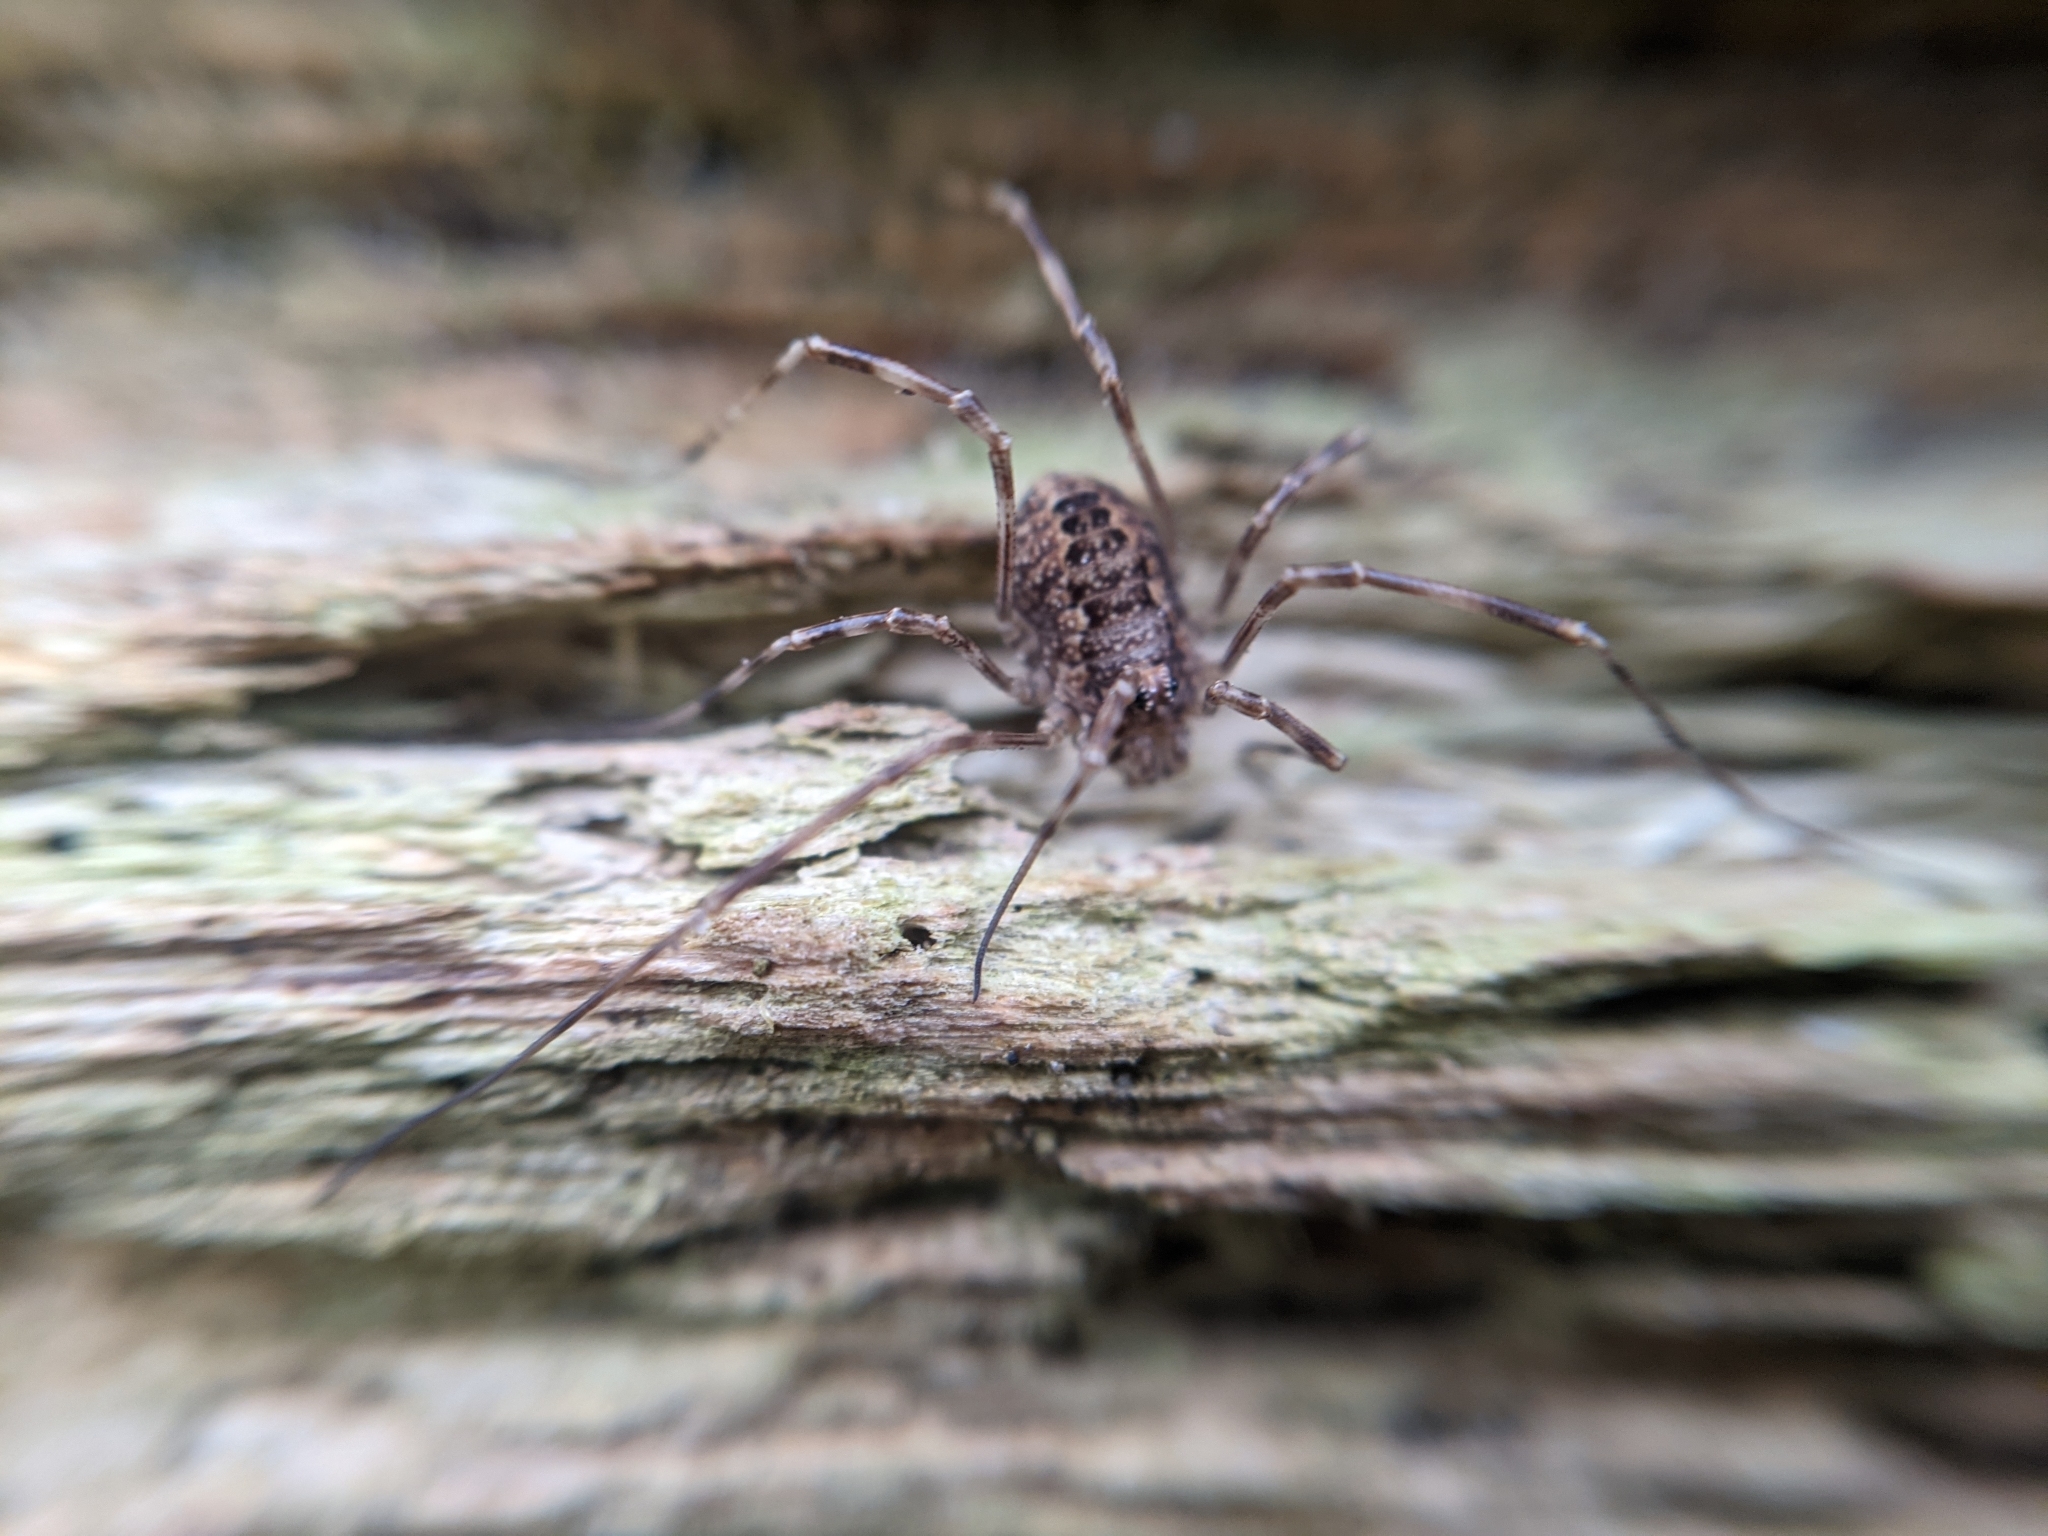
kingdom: Animalia
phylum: Arthropoda
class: Arachnida
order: Opiliones
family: Phalangiidae
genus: Rilaena
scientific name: Rilaena triangularis
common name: Spring harvestman
